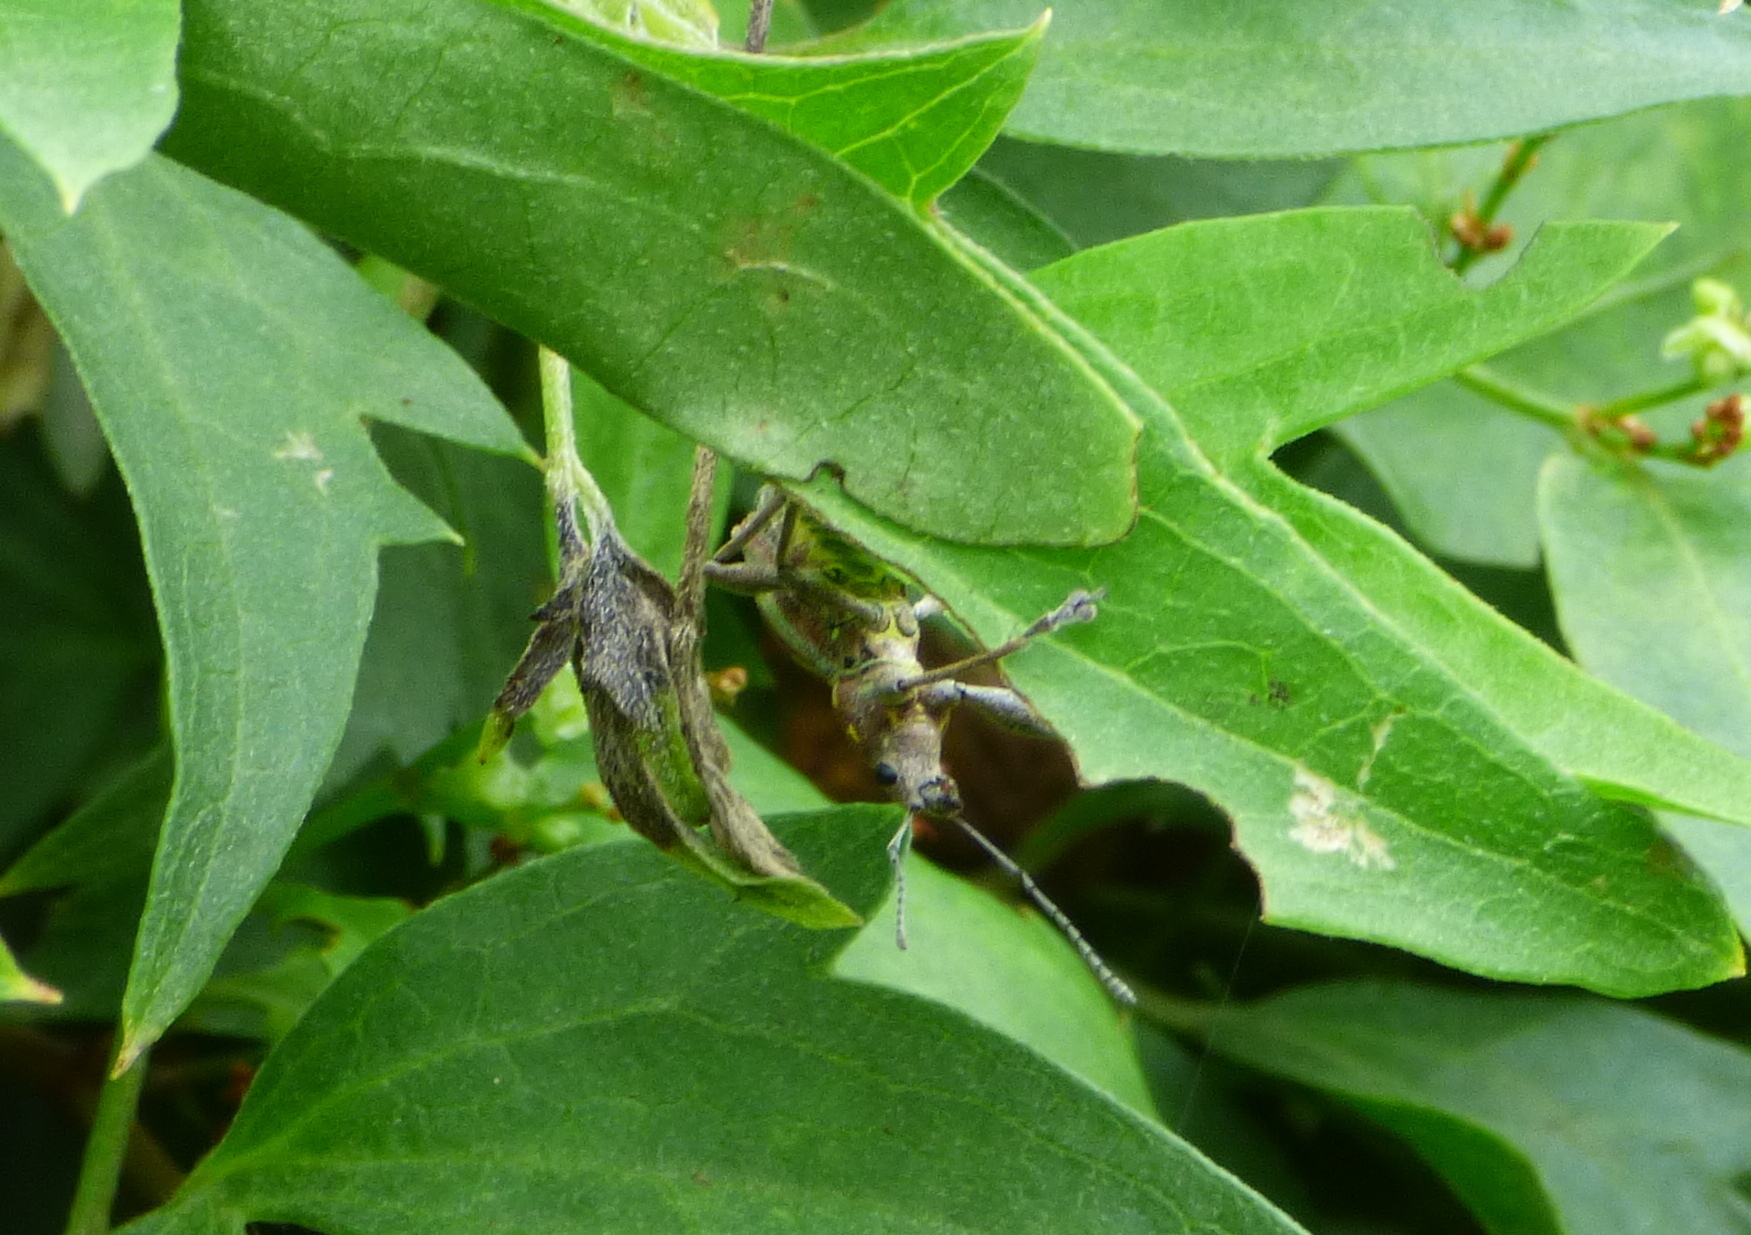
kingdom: Animalia
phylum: Arthropoda
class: Insecta
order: Coleoptera
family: Curculionidae
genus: Naupactus
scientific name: Naupactus xanthographus
